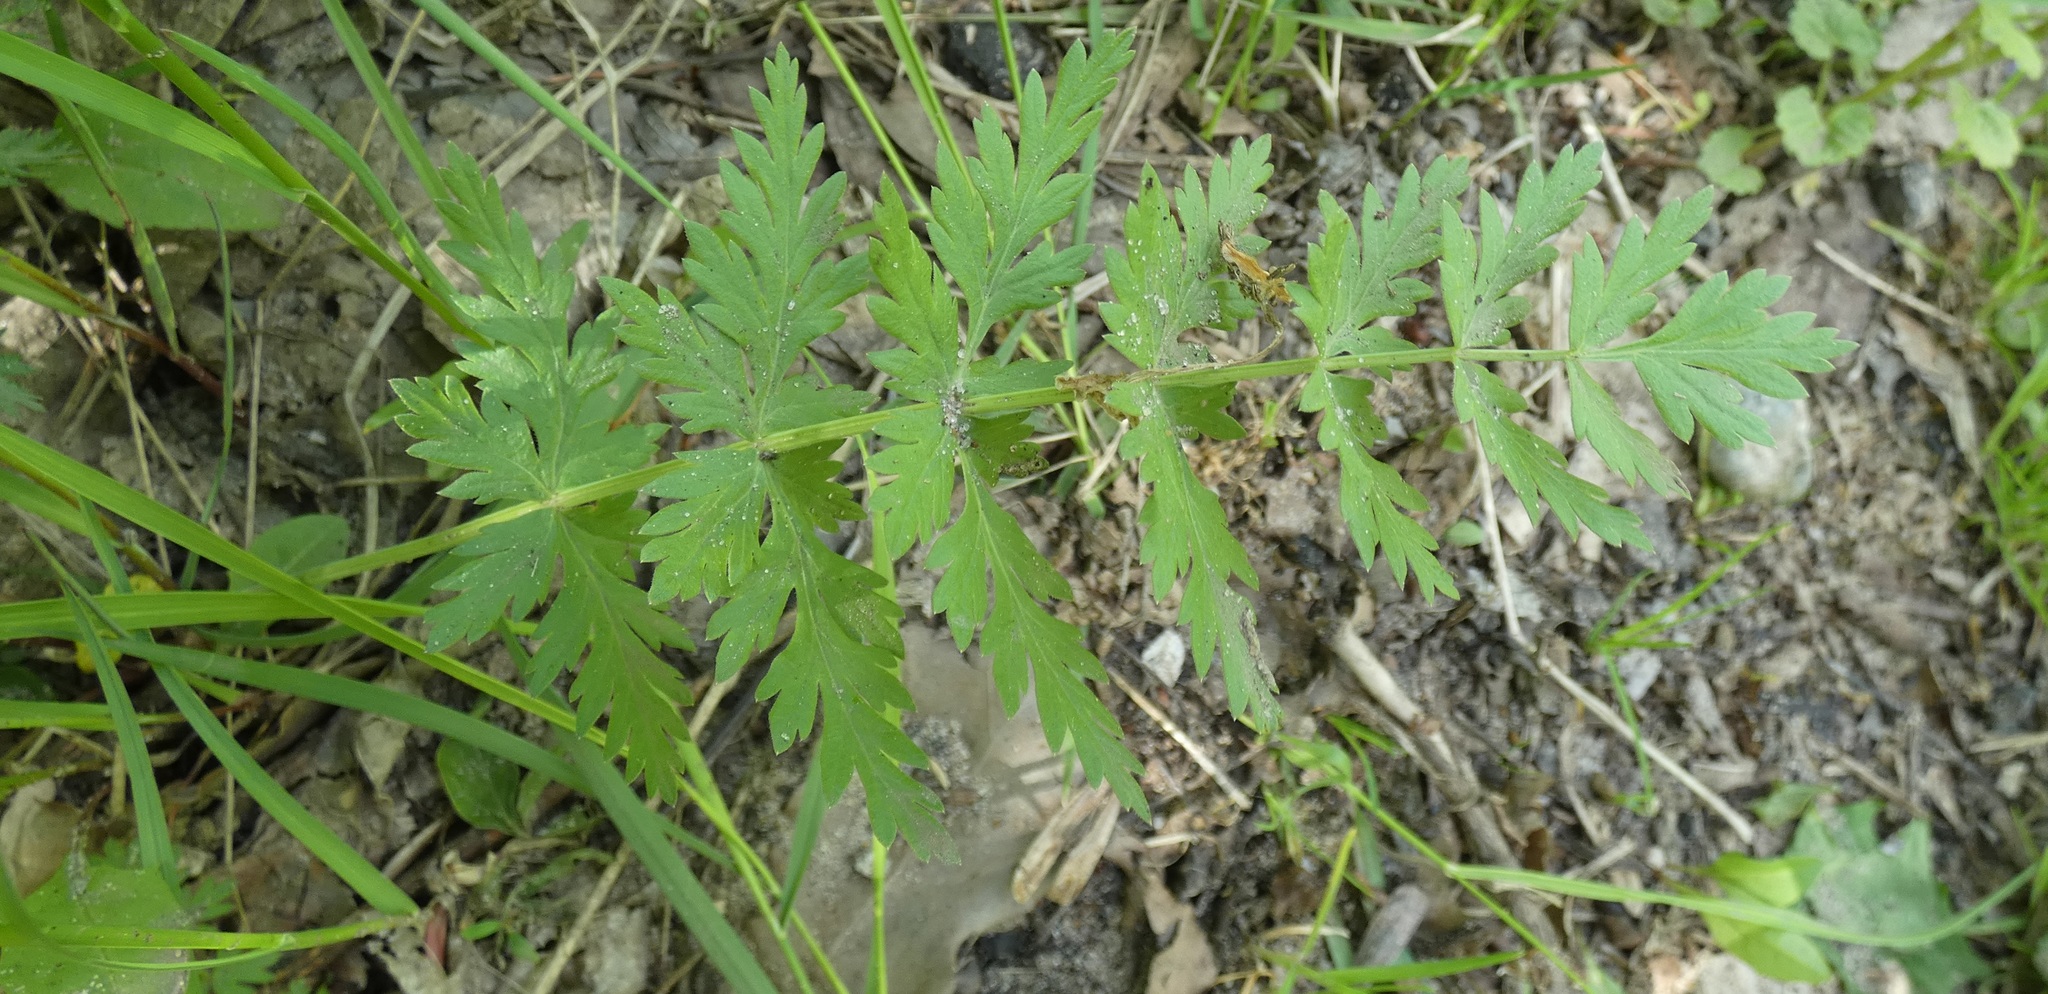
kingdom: Plantae
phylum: Tracheophyta
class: Magnoliopsida
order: Apiales
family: Apiaceae
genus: Seseli
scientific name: Seseli libanotis
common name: Mooncarrot
